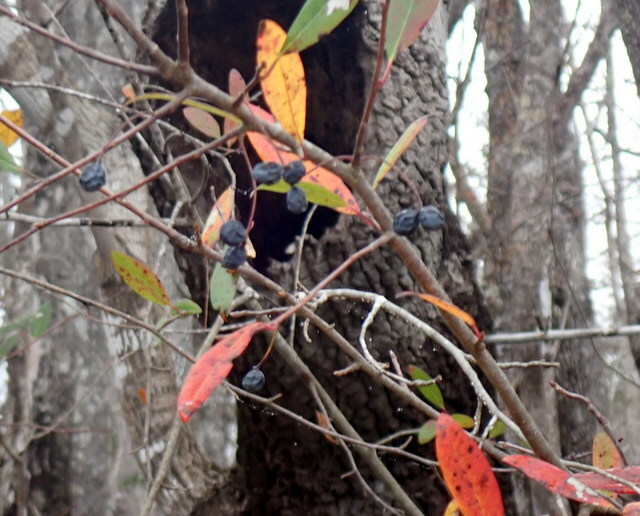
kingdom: Plantae
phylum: Tracheophyta
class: Magnoliopsida
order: Cornales
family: Nyssaceae
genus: Nyssa
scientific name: Nyssa biflora
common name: Swamp blackgum
